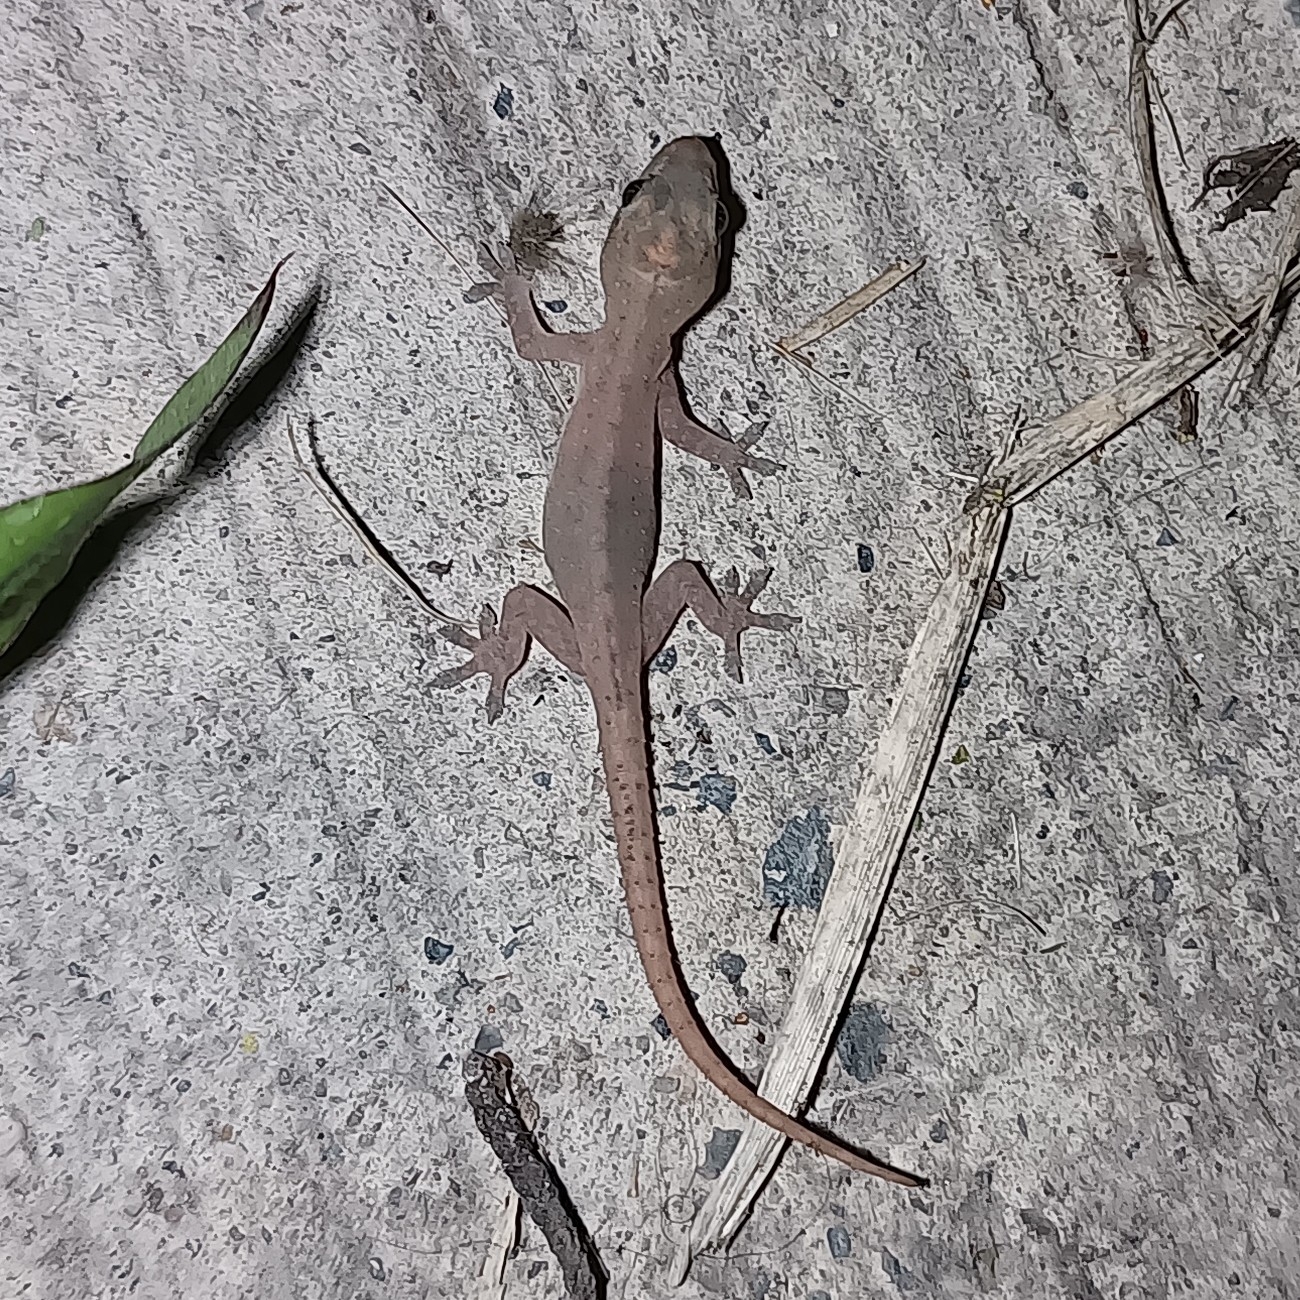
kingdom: Animalia
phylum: Chordata
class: Squamata
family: Gekkonidae
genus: Hemidactylus
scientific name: Hemidactylus frenatus
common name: Common house gecko
